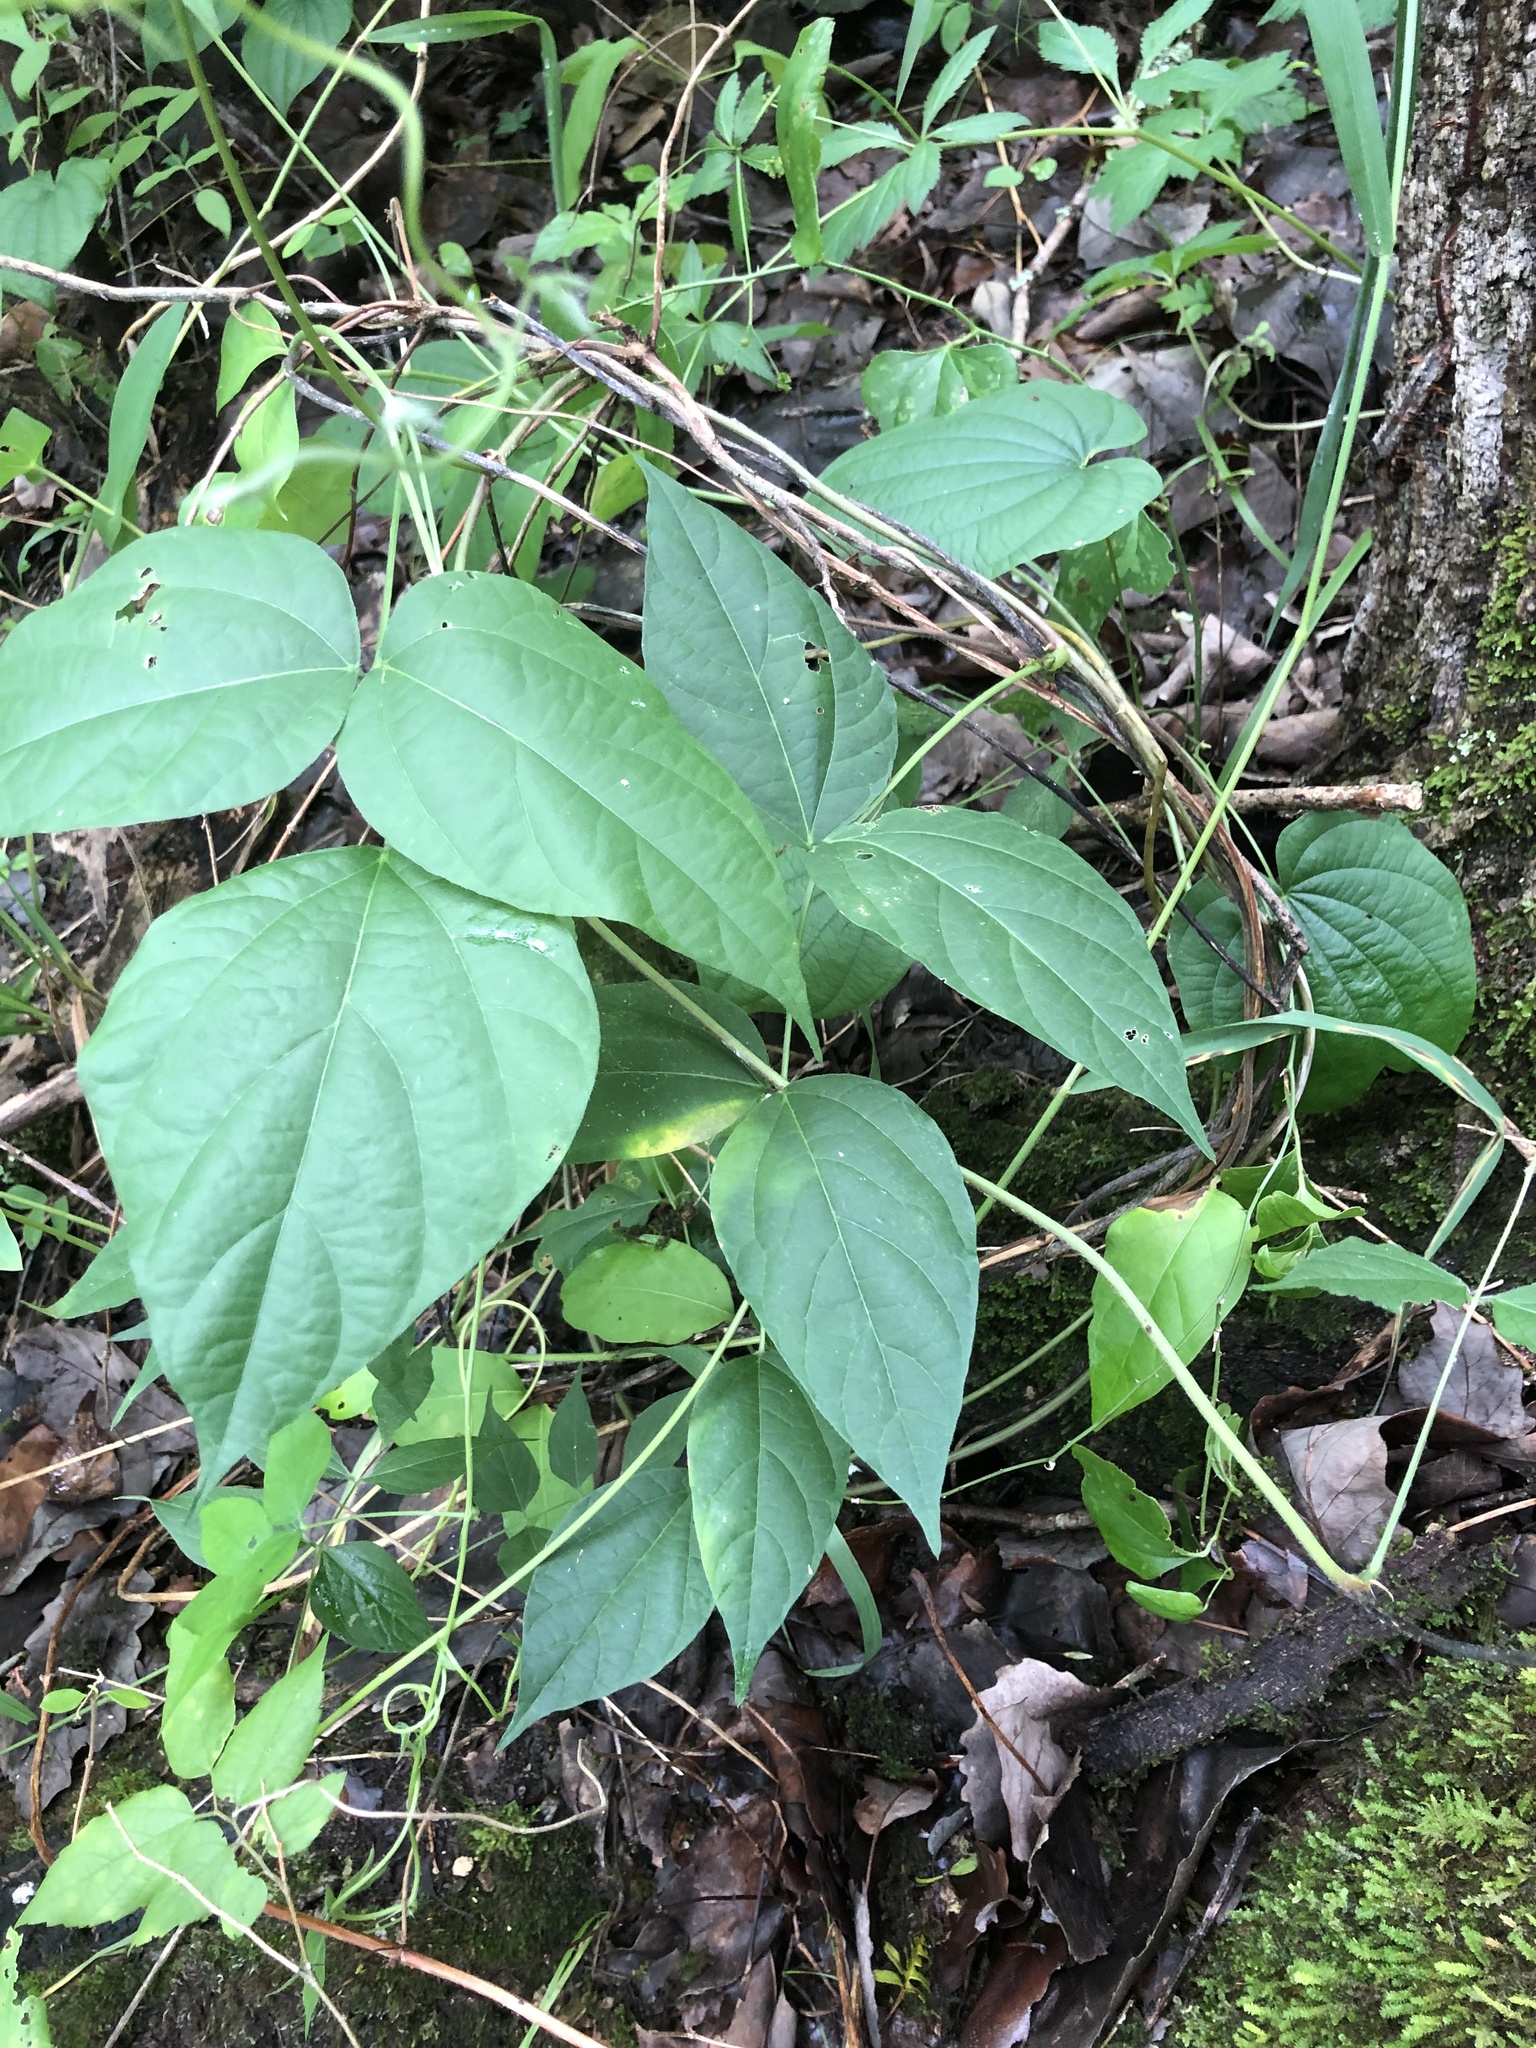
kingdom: Plantae
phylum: Tracheophyta
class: Magnoliopsida
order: Fabales
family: Fabaceae
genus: Apios
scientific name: Apios priceana
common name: Price's potato-bean
